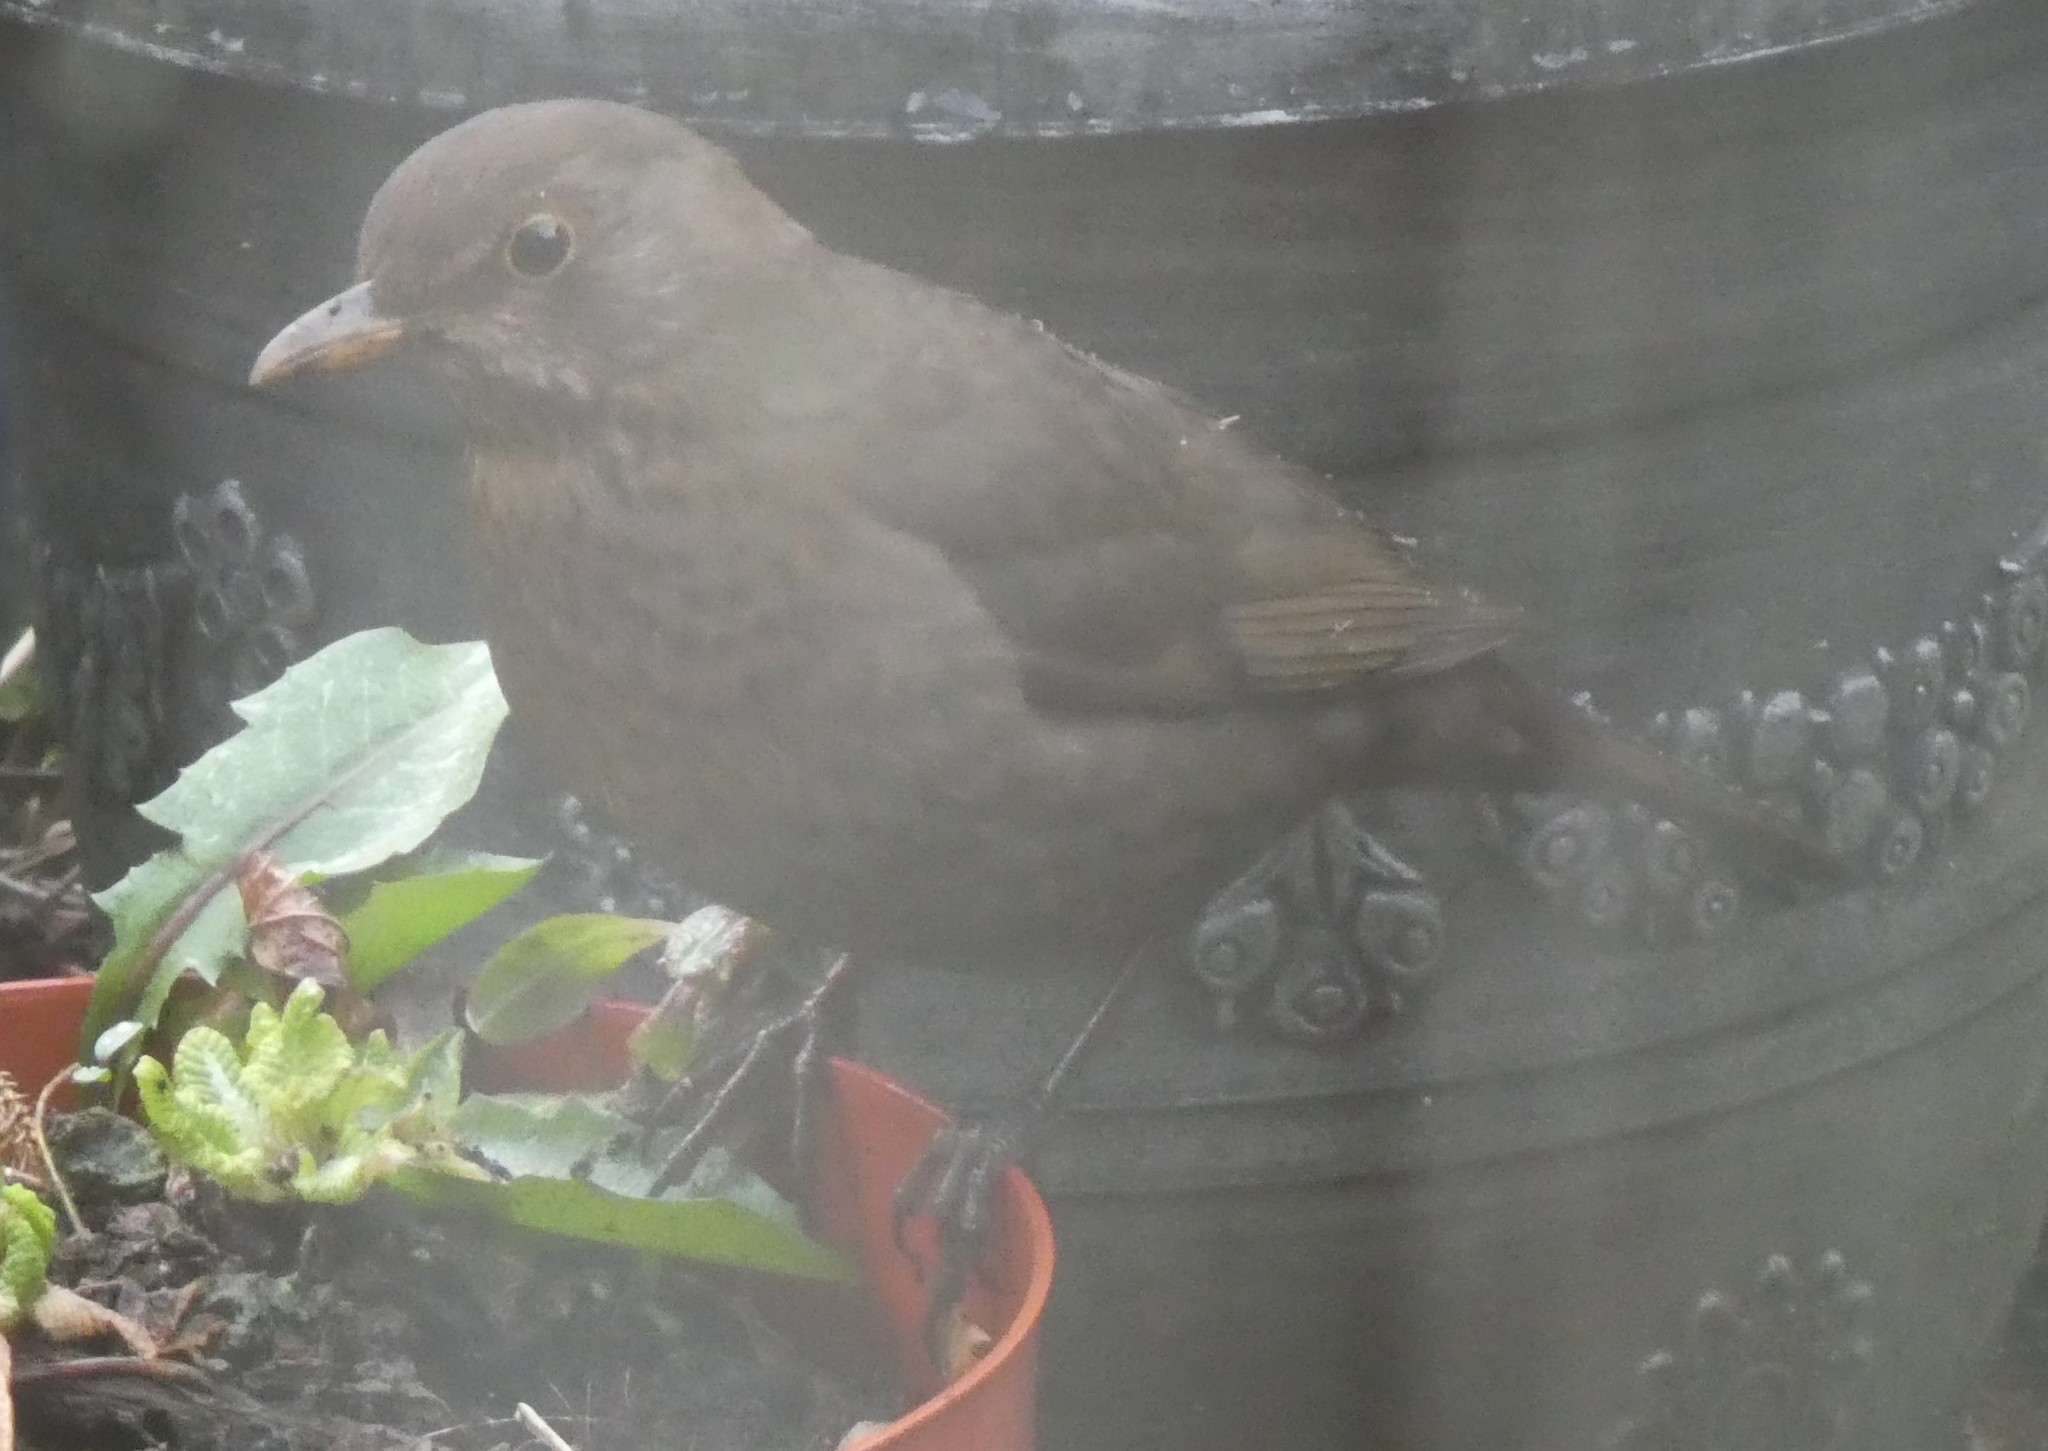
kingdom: Animalia
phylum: Chordata
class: Aves
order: Passeriformes
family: Turdidae
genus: Turdus
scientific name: Turdus merula
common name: Common blackbird
